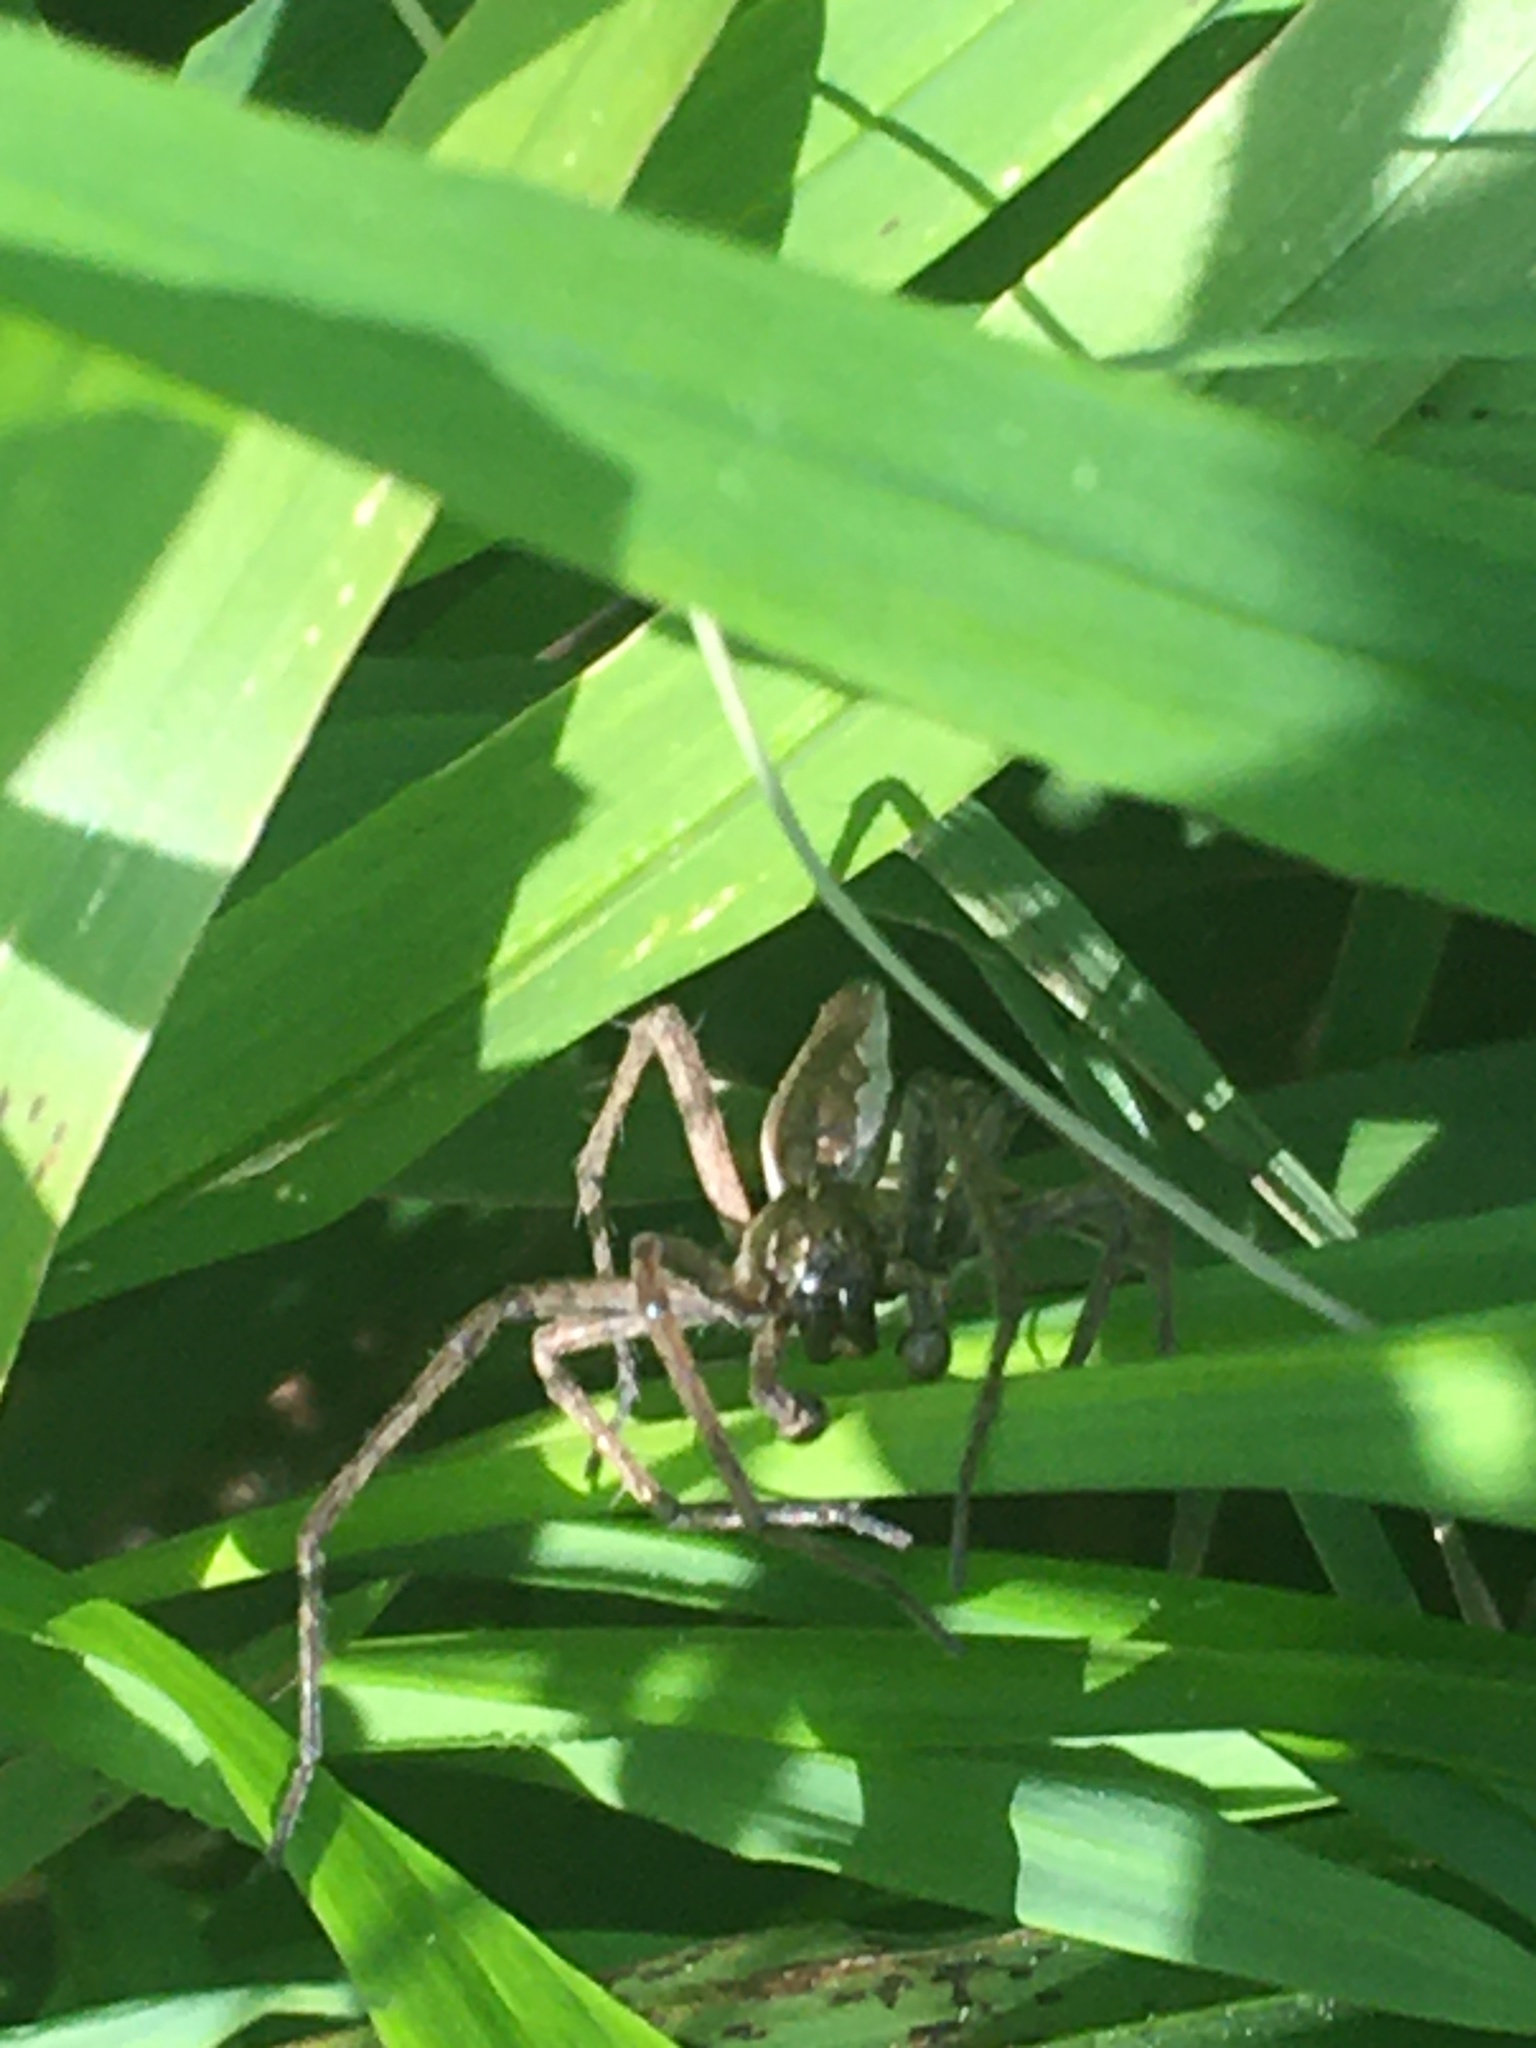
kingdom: Animalia
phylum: Arthropoda
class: Arachnida
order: Araneae
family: Pisauridae
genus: Pisaura
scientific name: Pisaura mirabilis
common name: Tent spider
